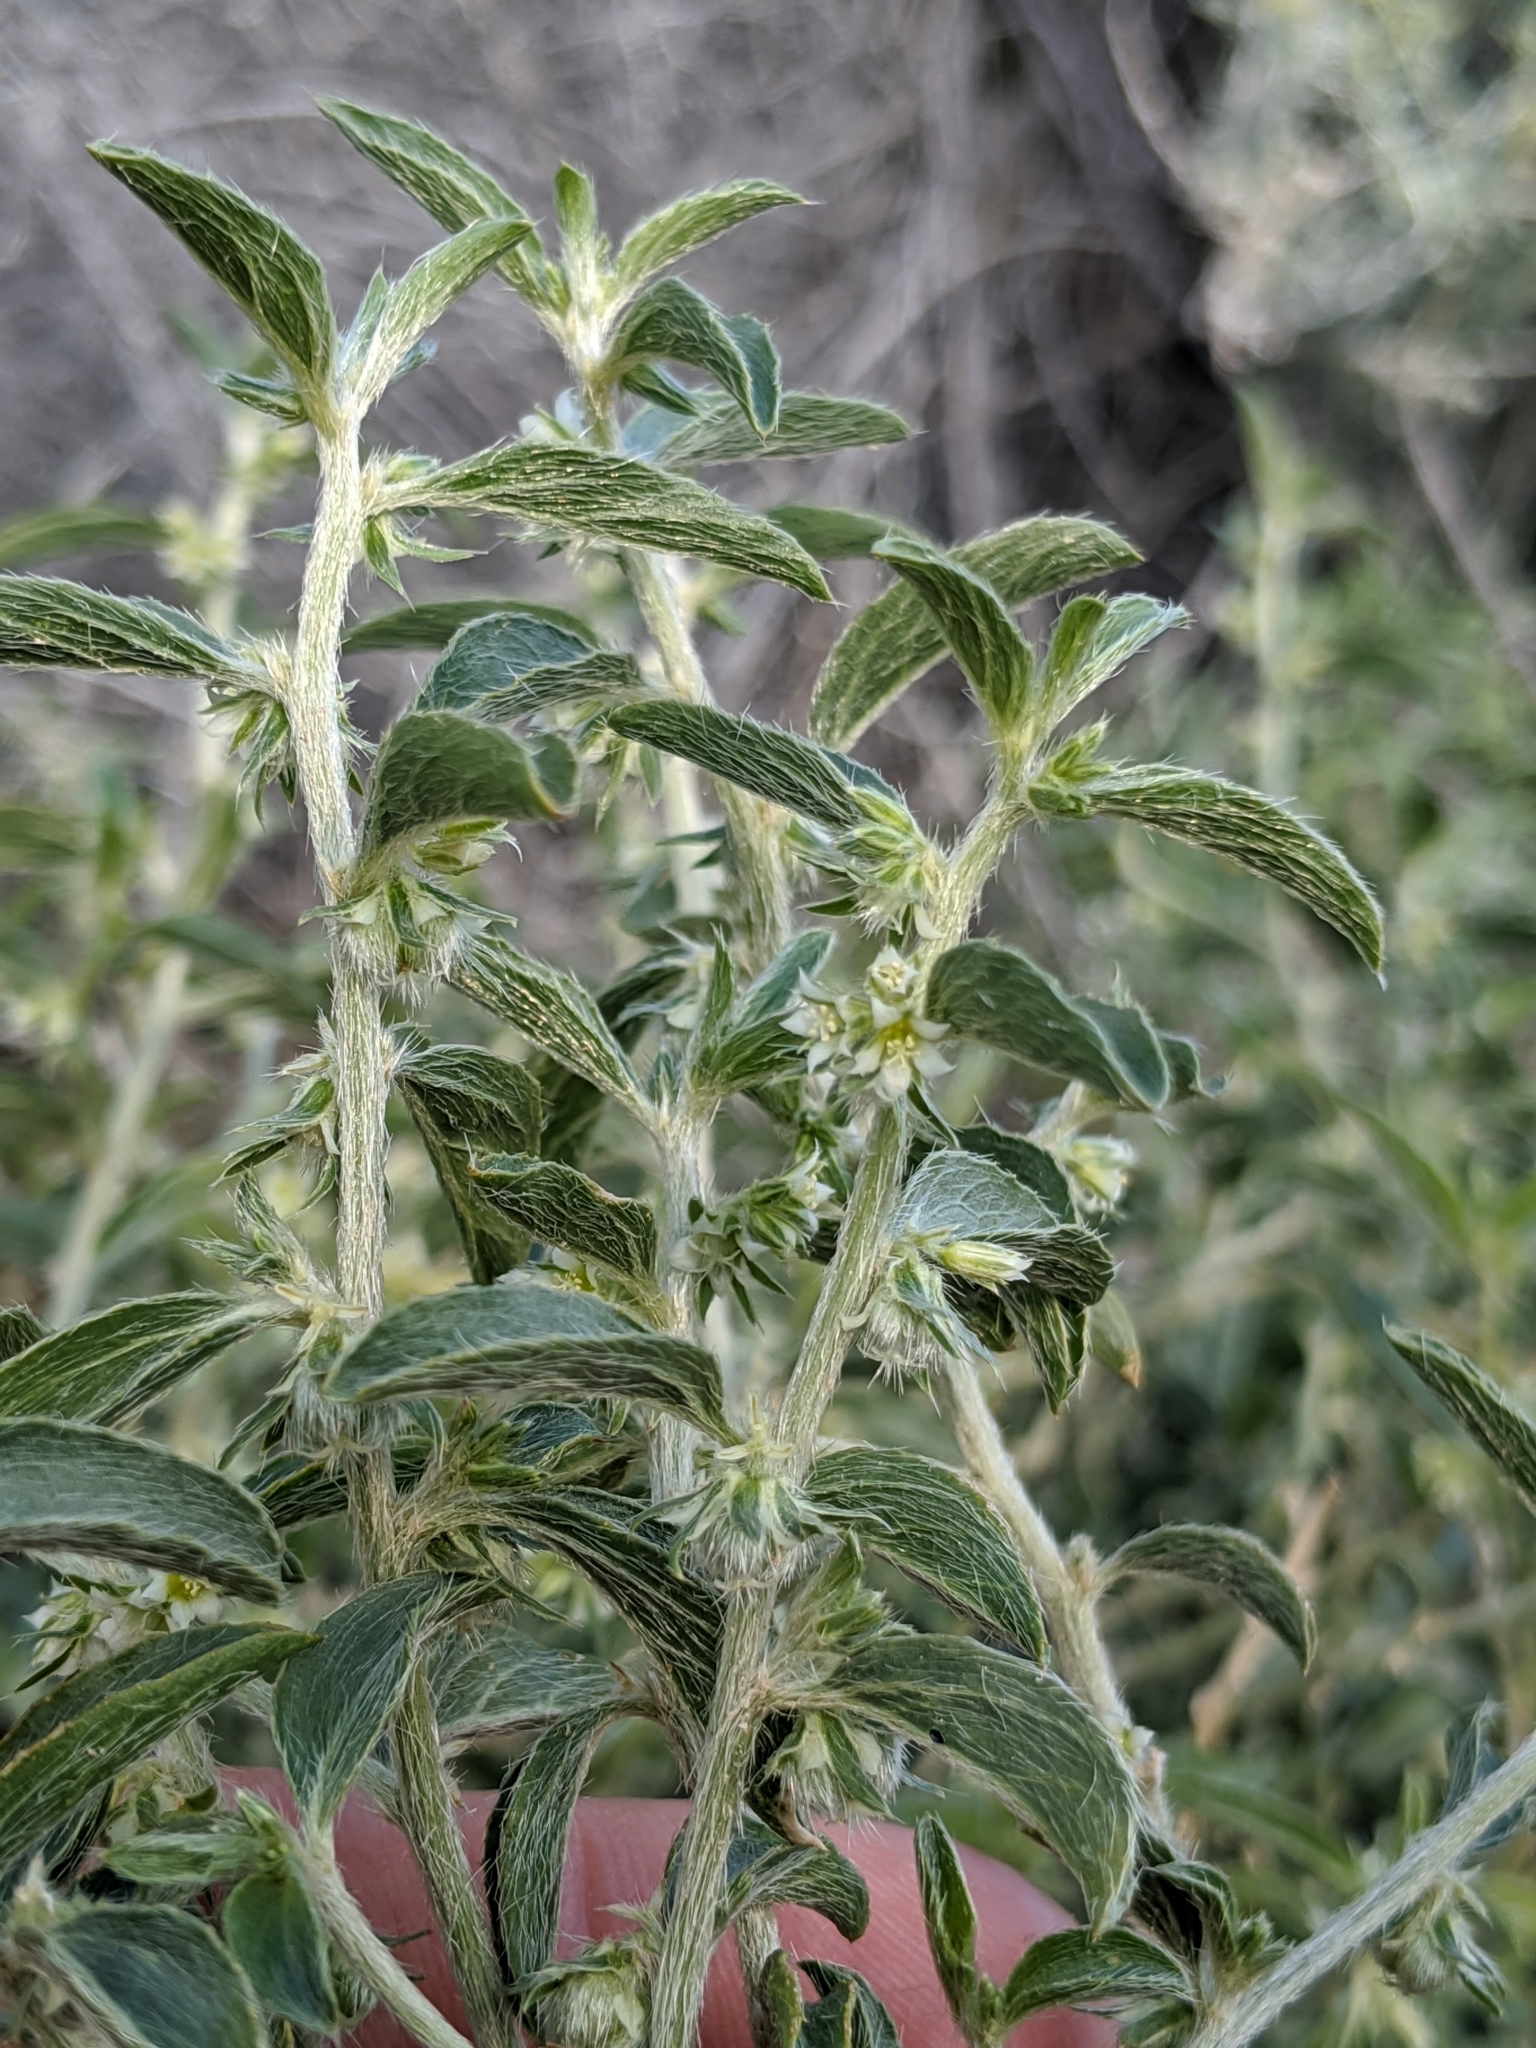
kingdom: Plantae
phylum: Tracheophyta
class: Magnoliopsida
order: Malpighiales
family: Euphorbiaceae
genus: Ditaxis
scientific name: Ditaxis serrata
